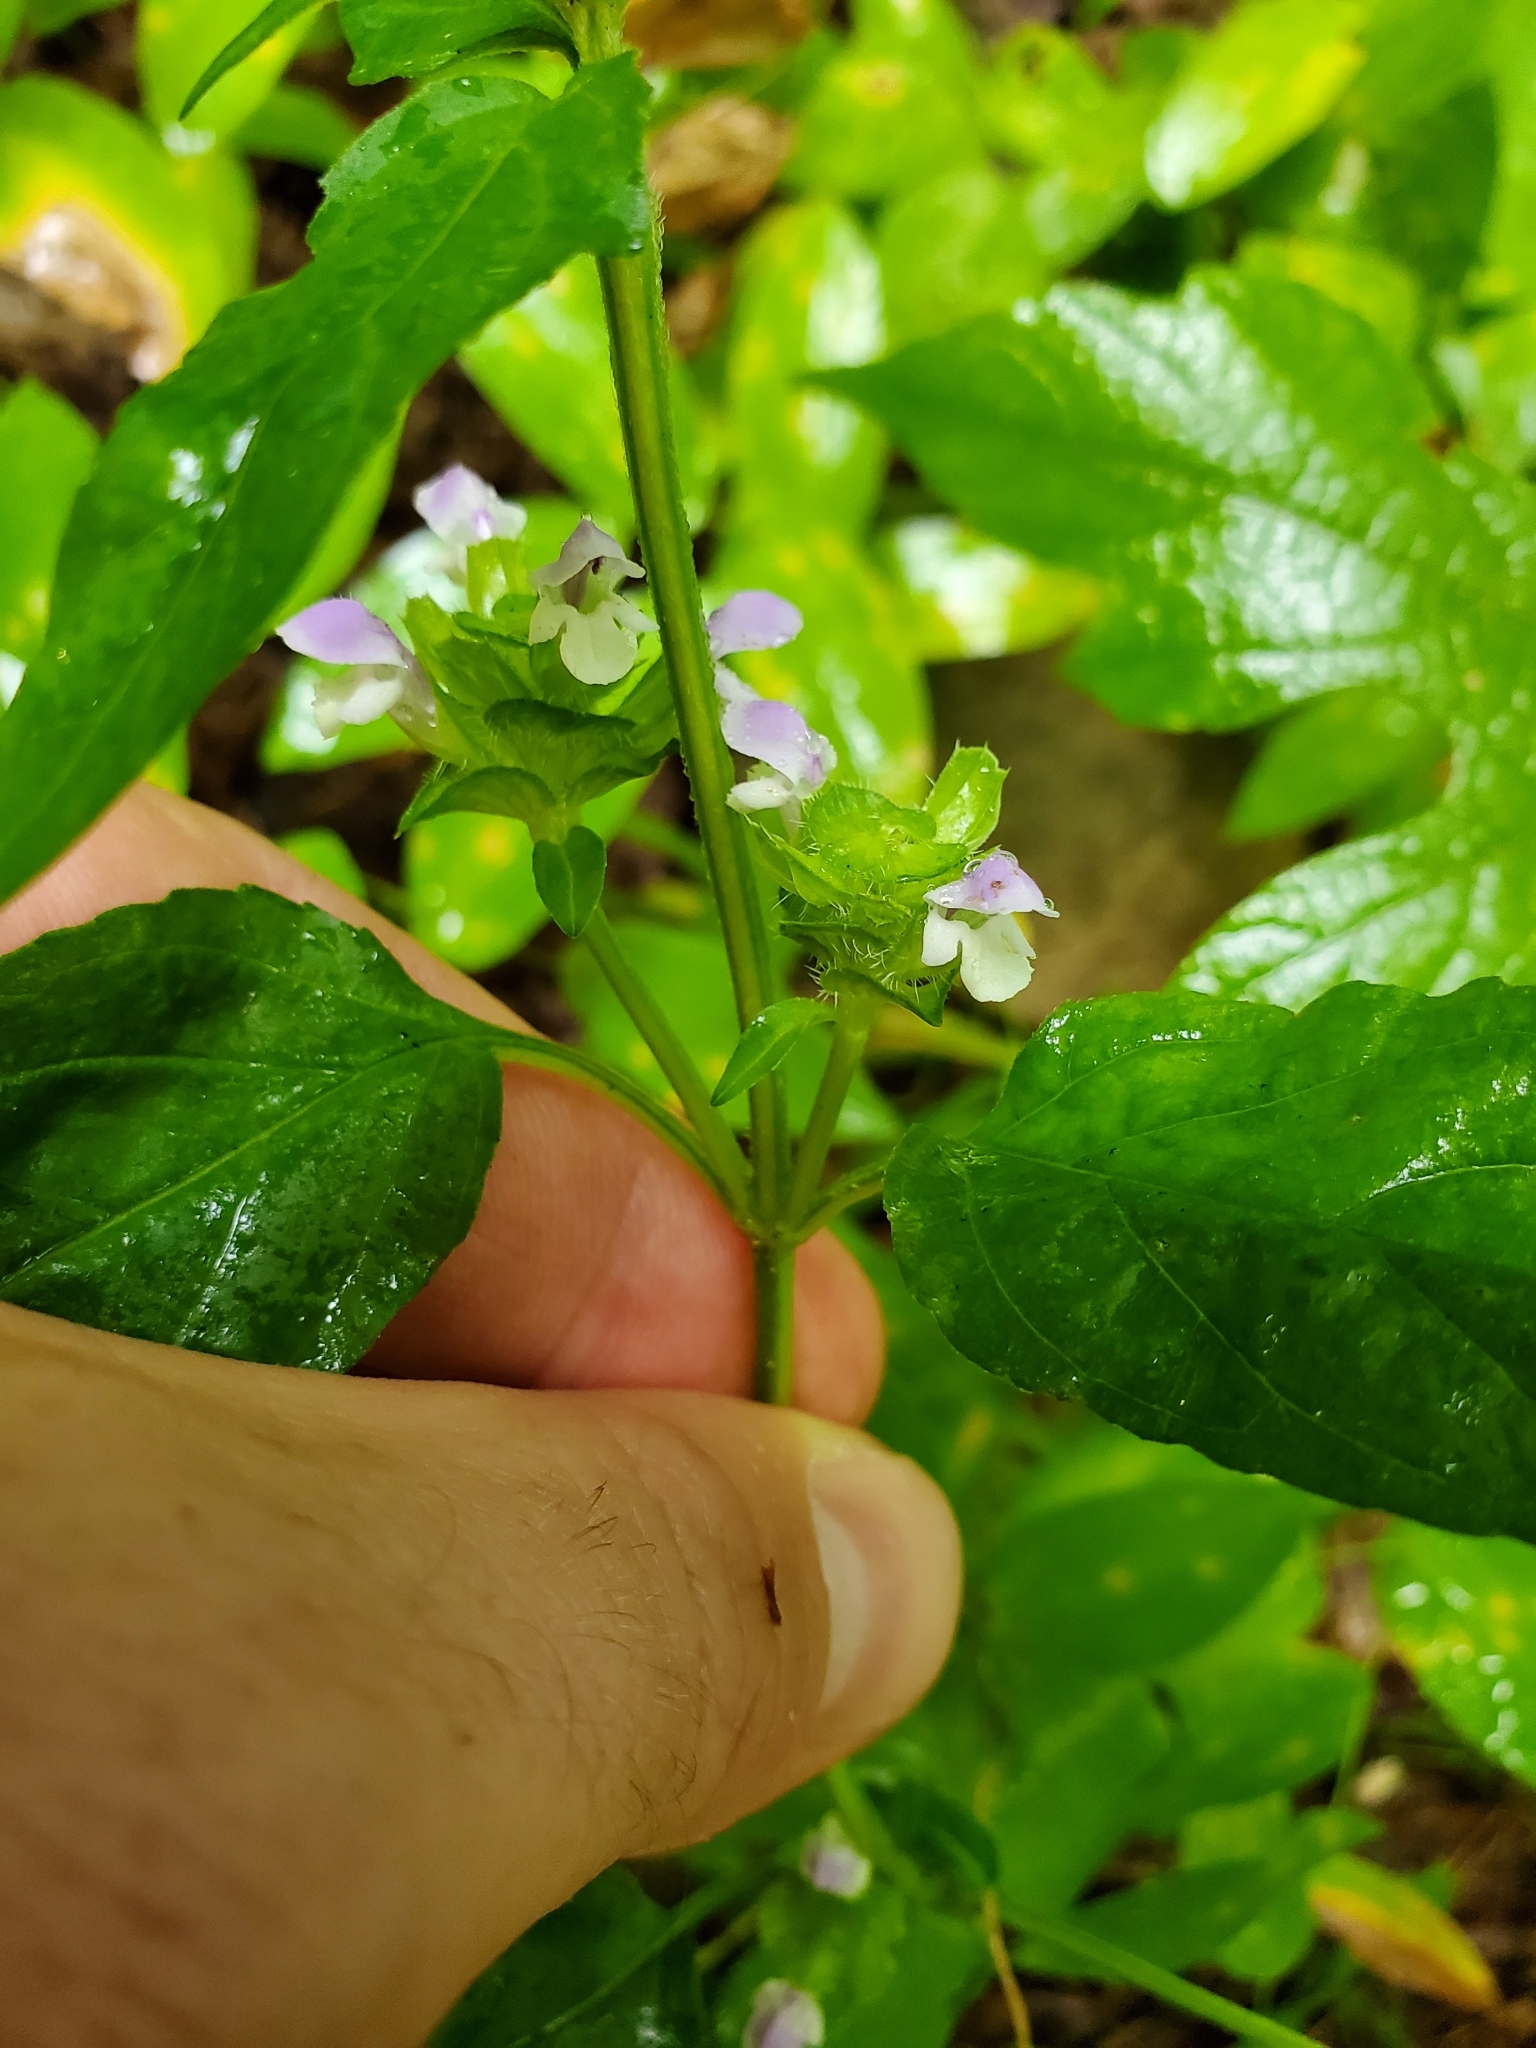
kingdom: Plantae
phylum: Tracheophyta
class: Magnoliopsida
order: Lamiales
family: Lamiaceae
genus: Prunella
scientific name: Prunella vulgaris
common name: Heal-all
